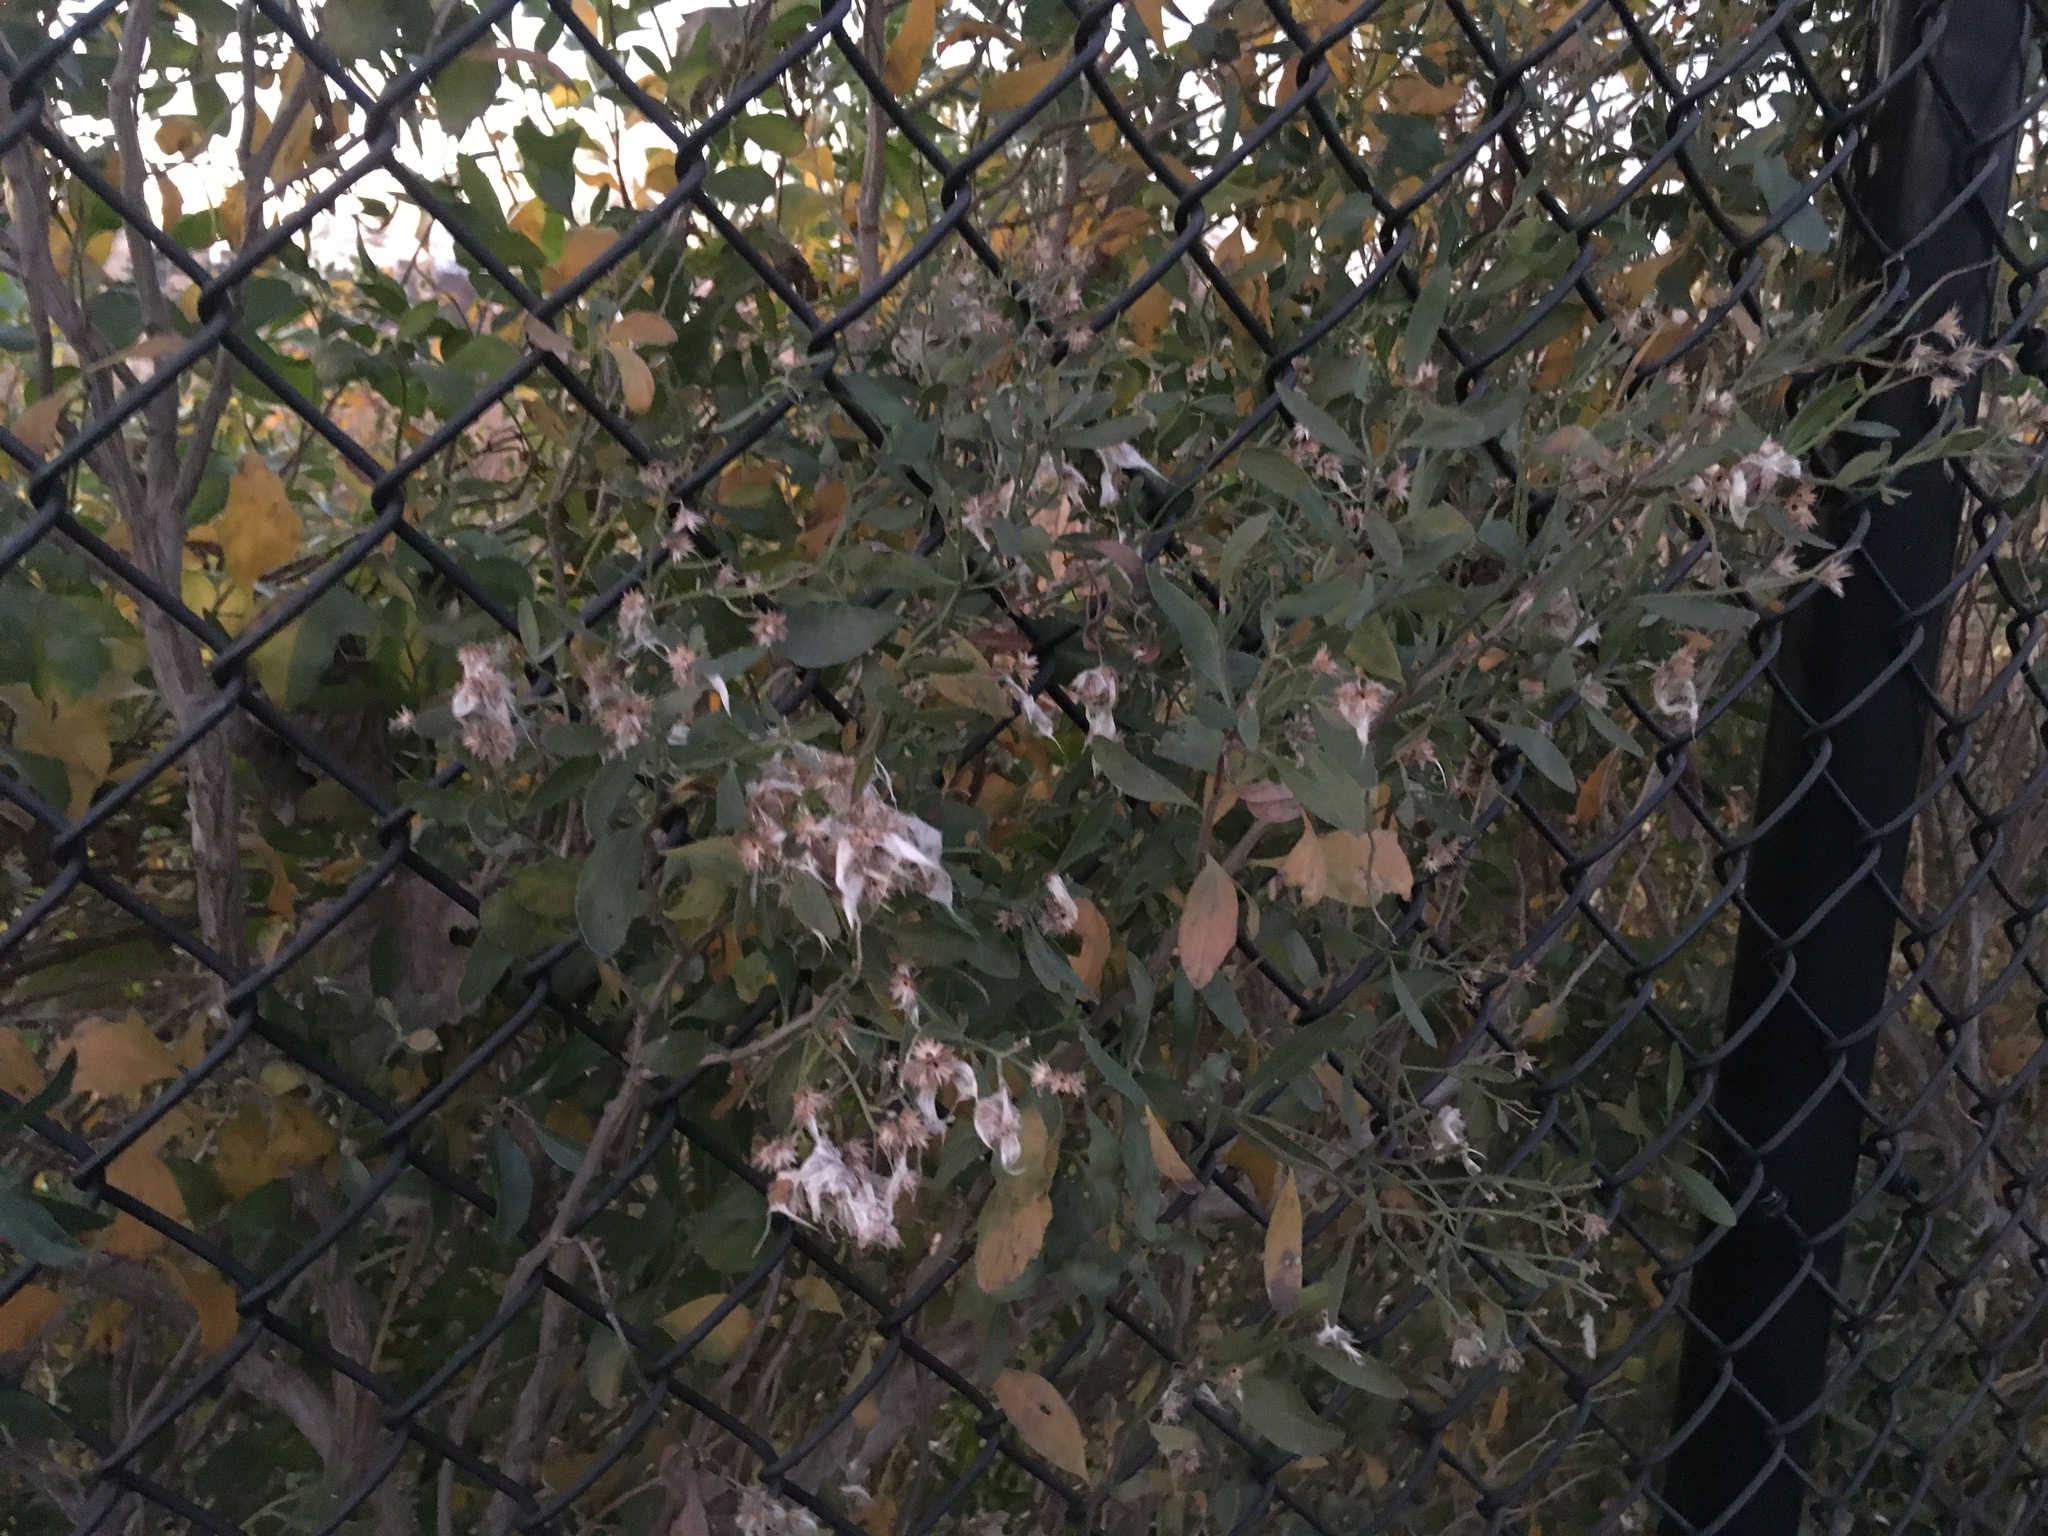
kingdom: Plantae
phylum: Tracheophyta
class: Magnoliopsida
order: Asterales
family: Asteraceae
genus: Baccharis
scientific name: Baccharis halimifolia
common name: Eastern baccharis
